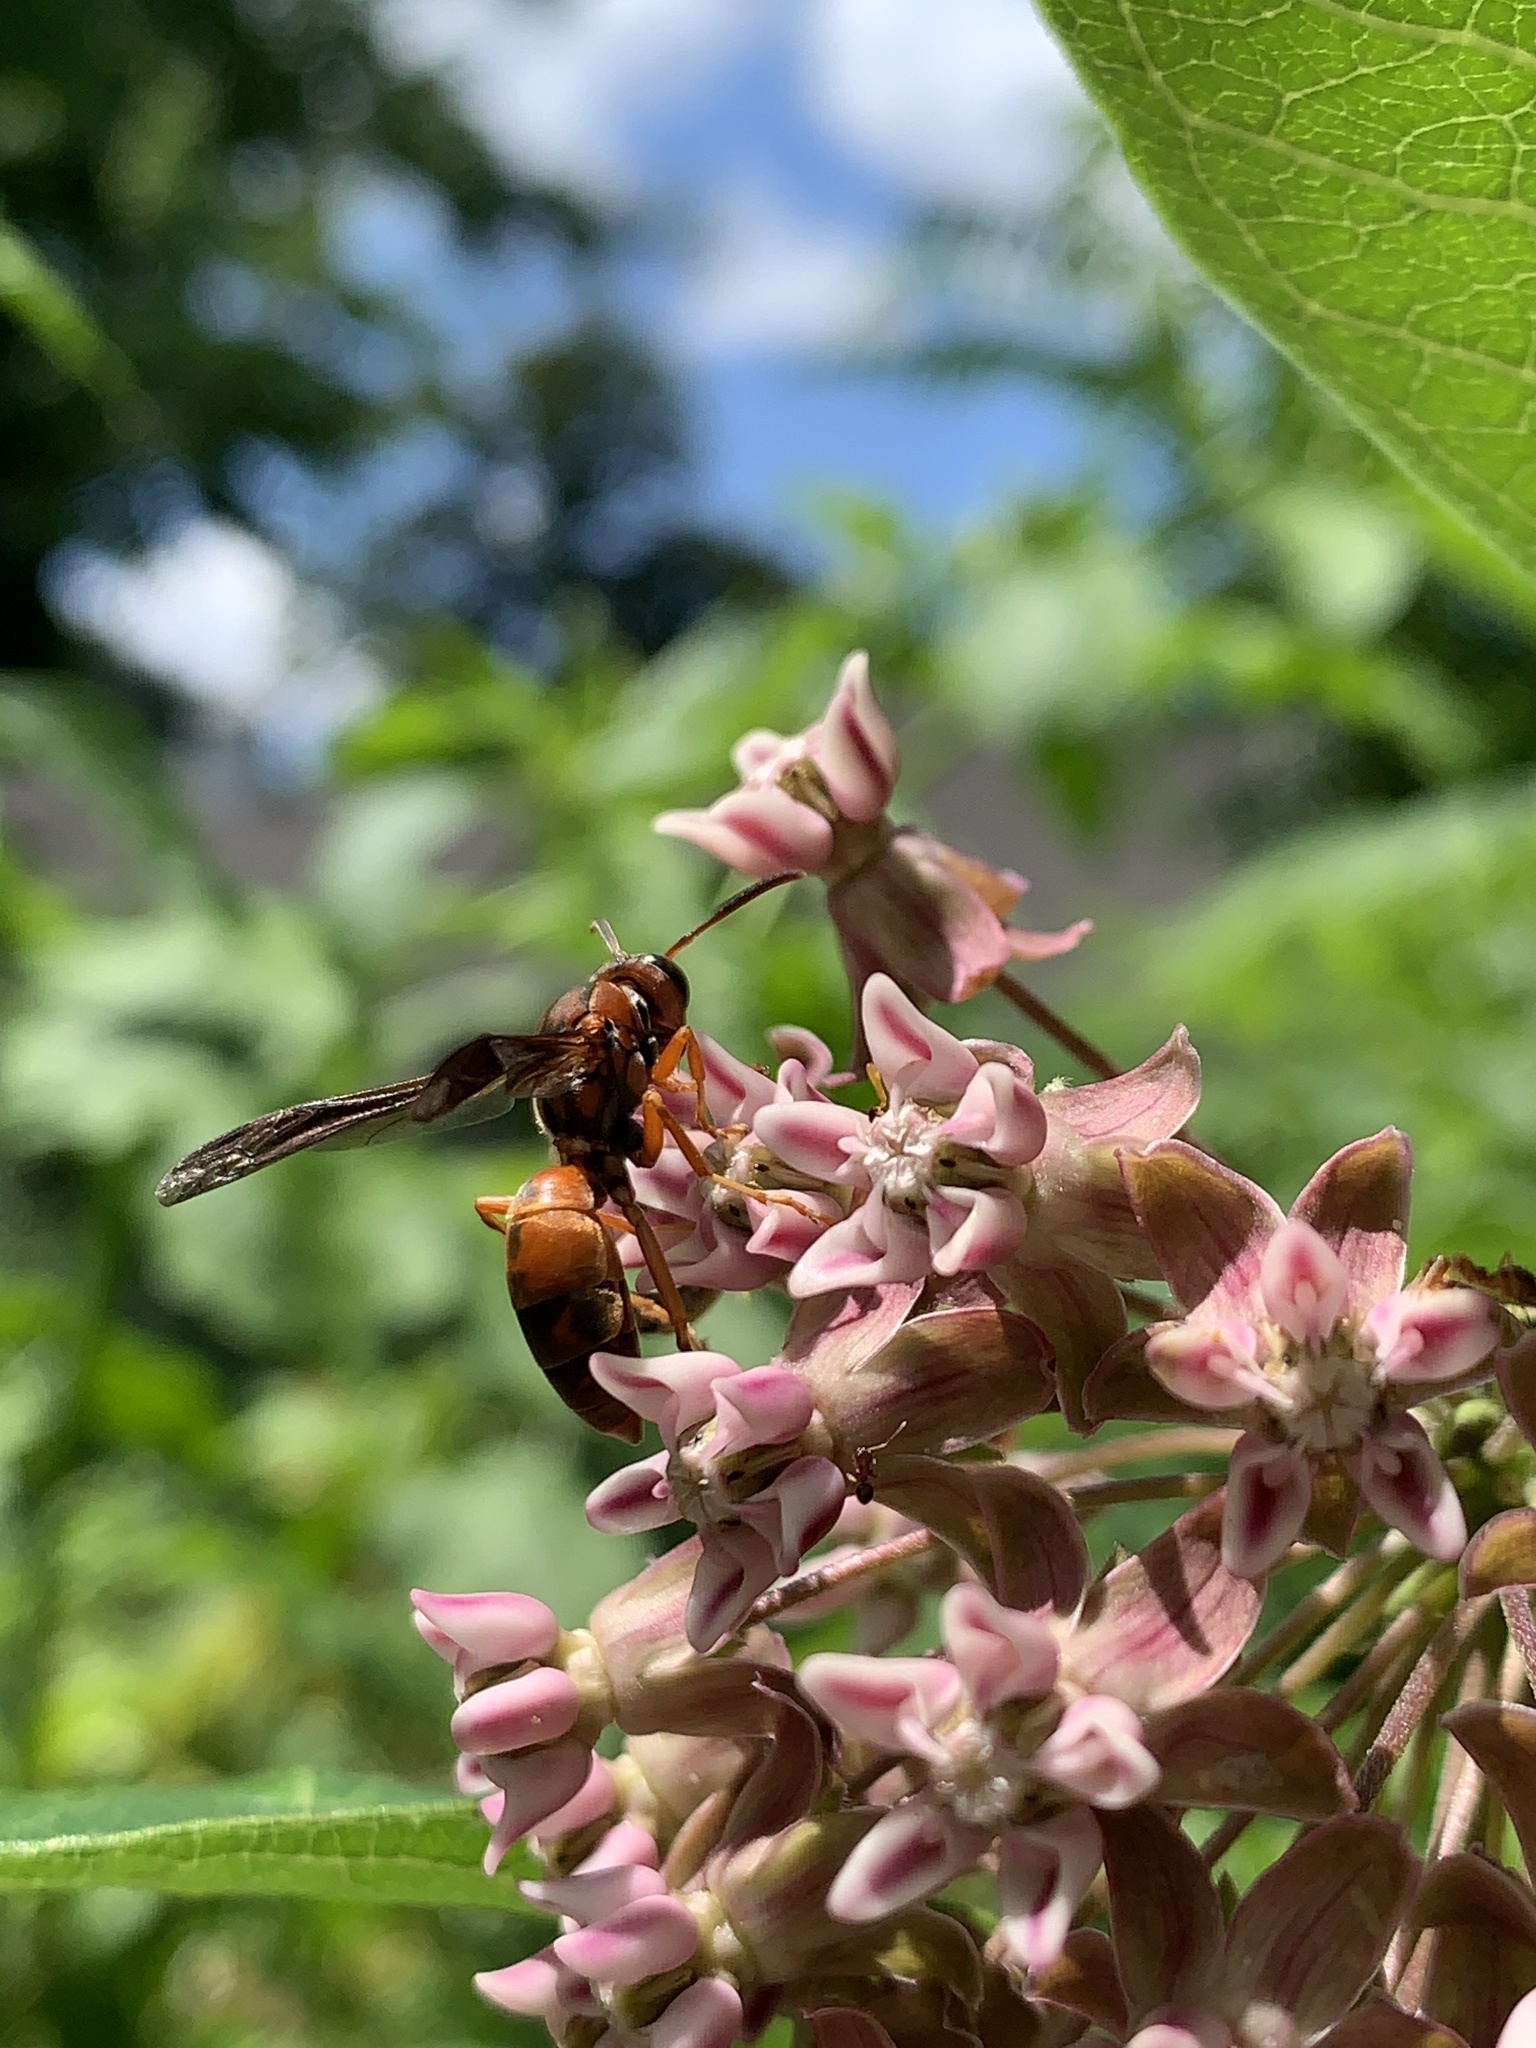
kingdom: Animalia
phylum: Arthropoda
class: Insecta
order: Hymenoptera
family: Eumenidae
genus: Polistes
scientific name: Polistes fuscatus
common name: Dark paper wasp
